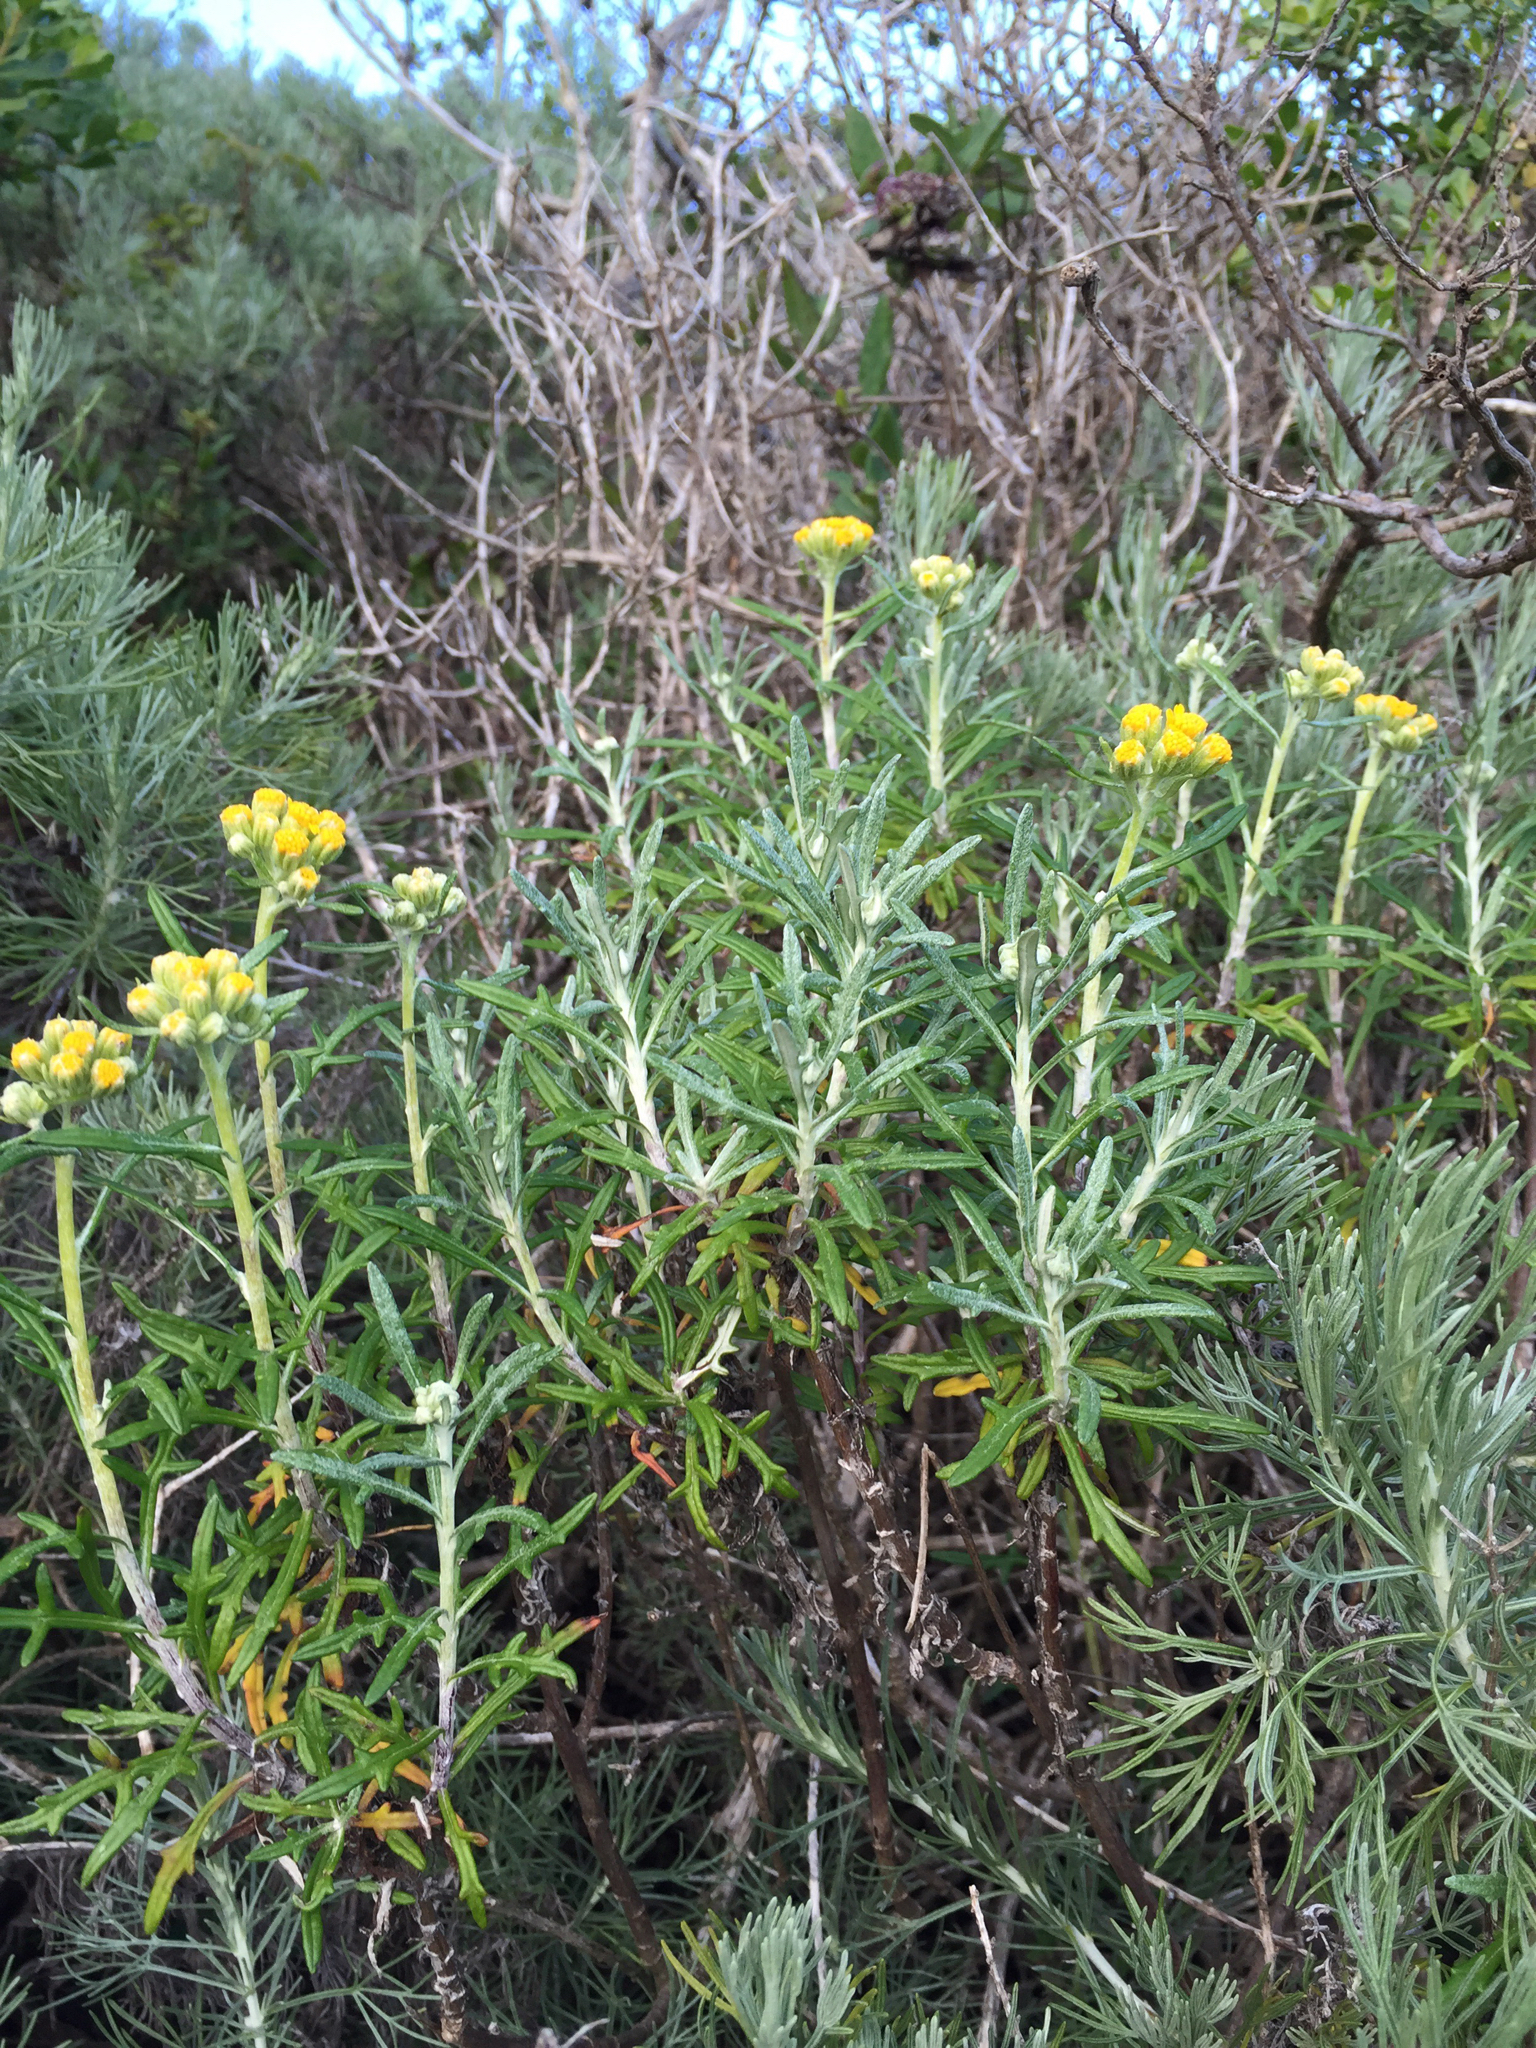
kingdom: Plantae
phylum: Tracheophyta
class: Magnoliopsida
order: Asterales
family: Asteraceae
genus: Eriophyllum
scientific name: Eriophyllum staechadifolium
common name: Lizardtail
